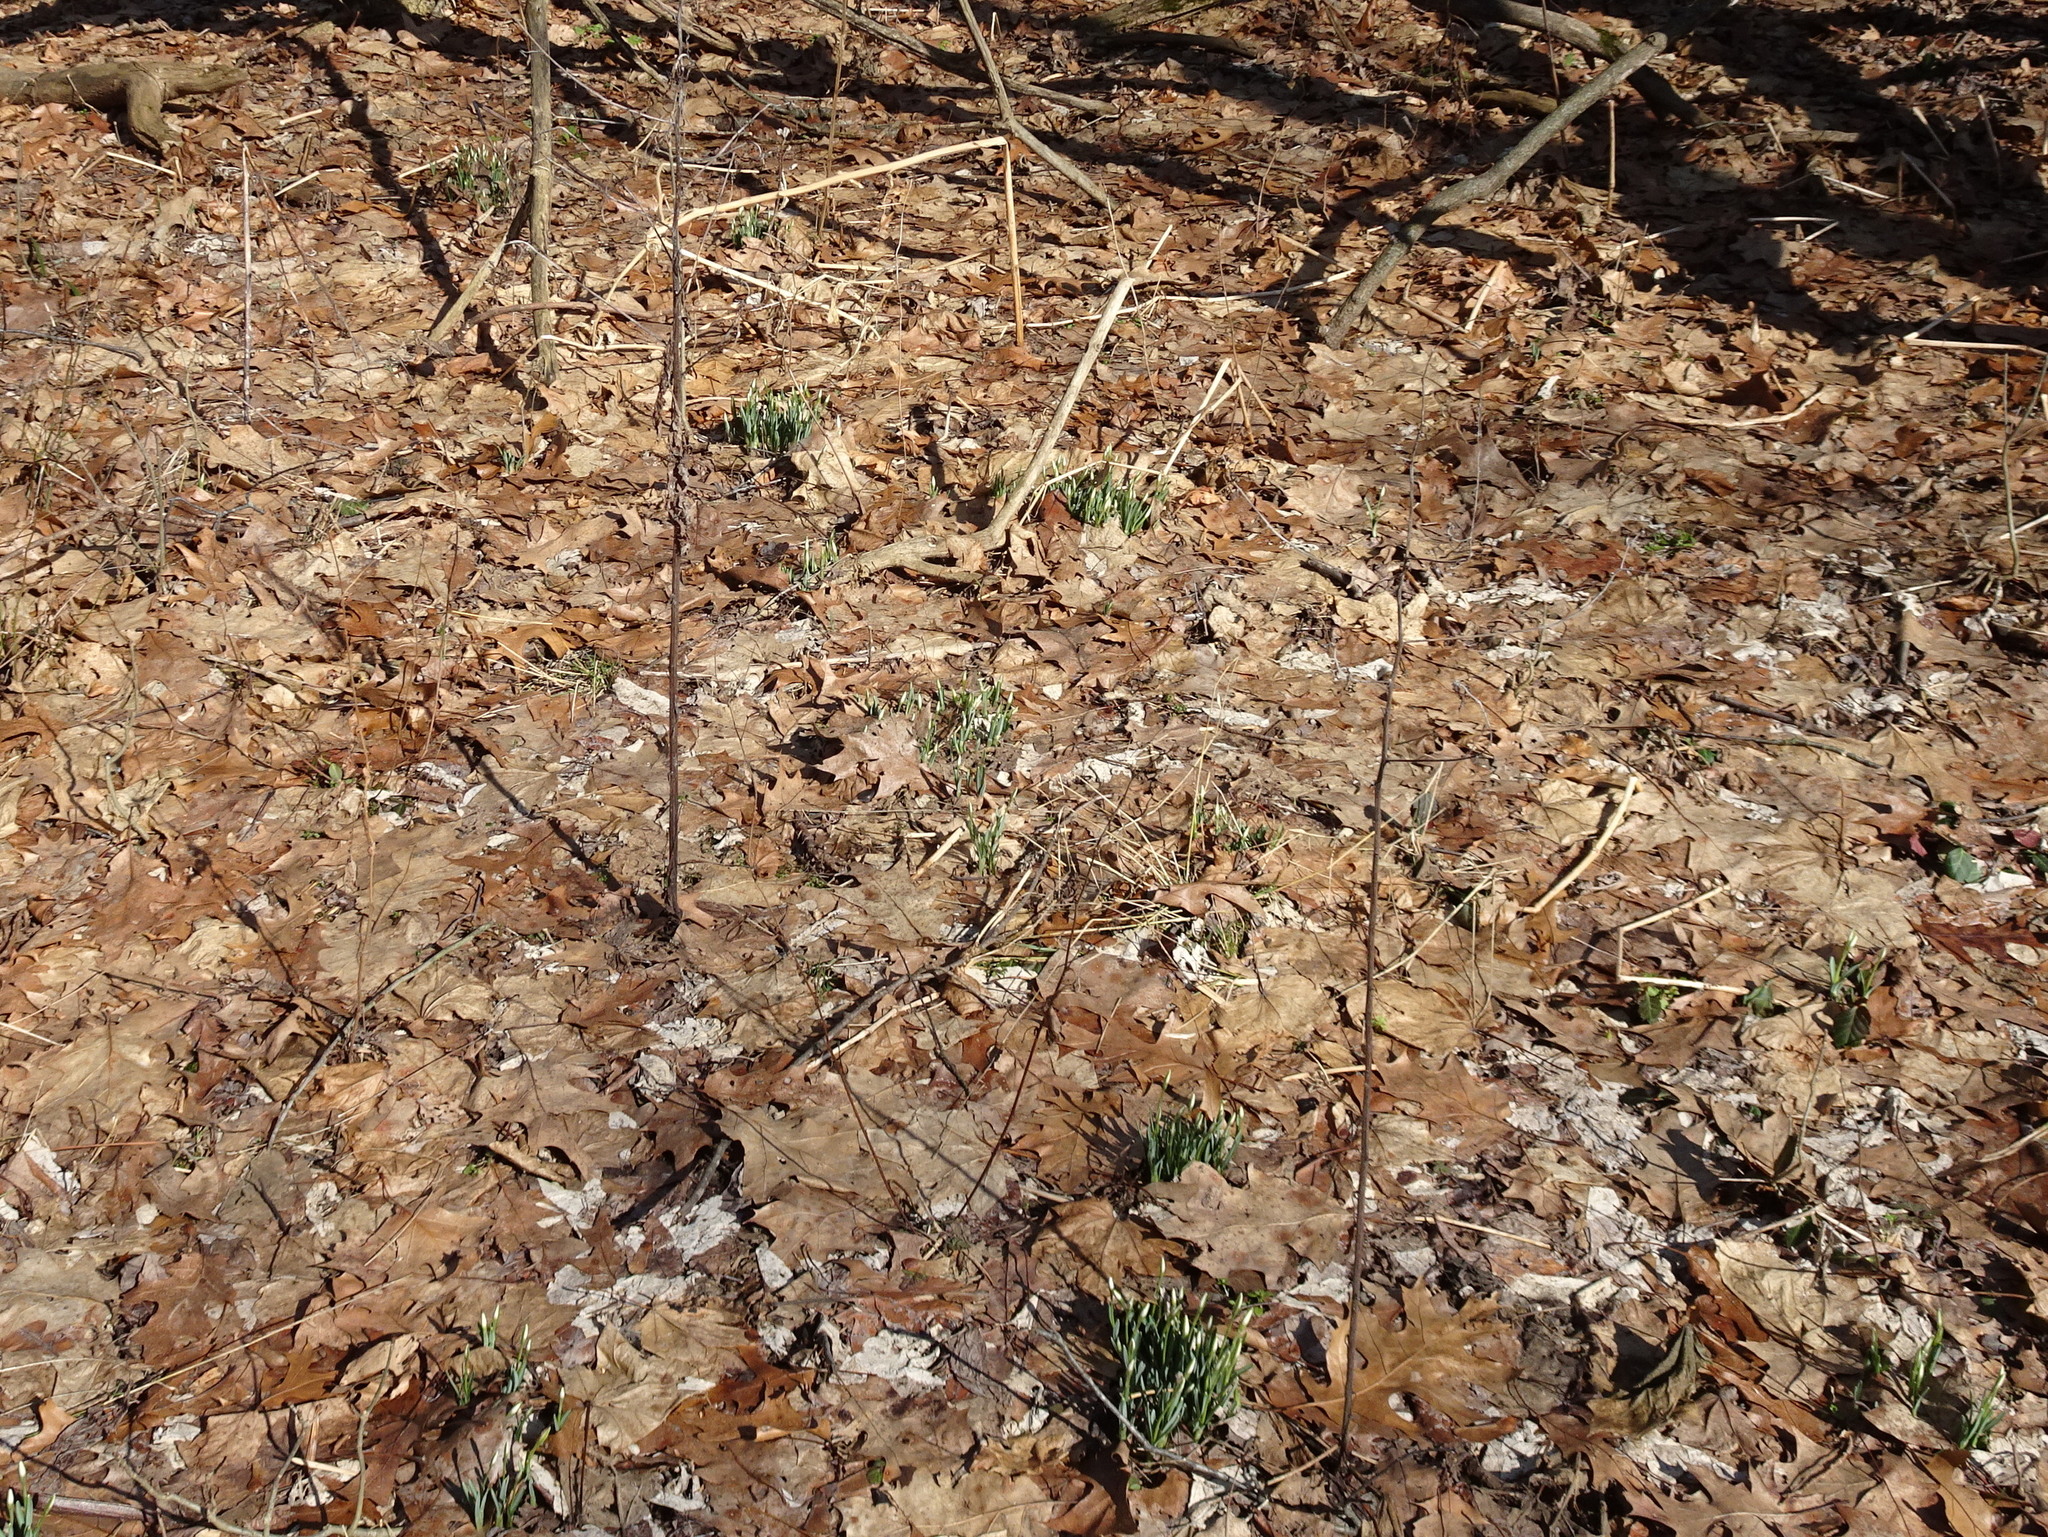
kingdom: Plantae
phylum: Tracheophyta
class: Liliopsida
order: Asparagales
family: Amaryllidaceae
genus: Galanthus
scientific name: Galanthus nivalis
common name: Snowdrop
